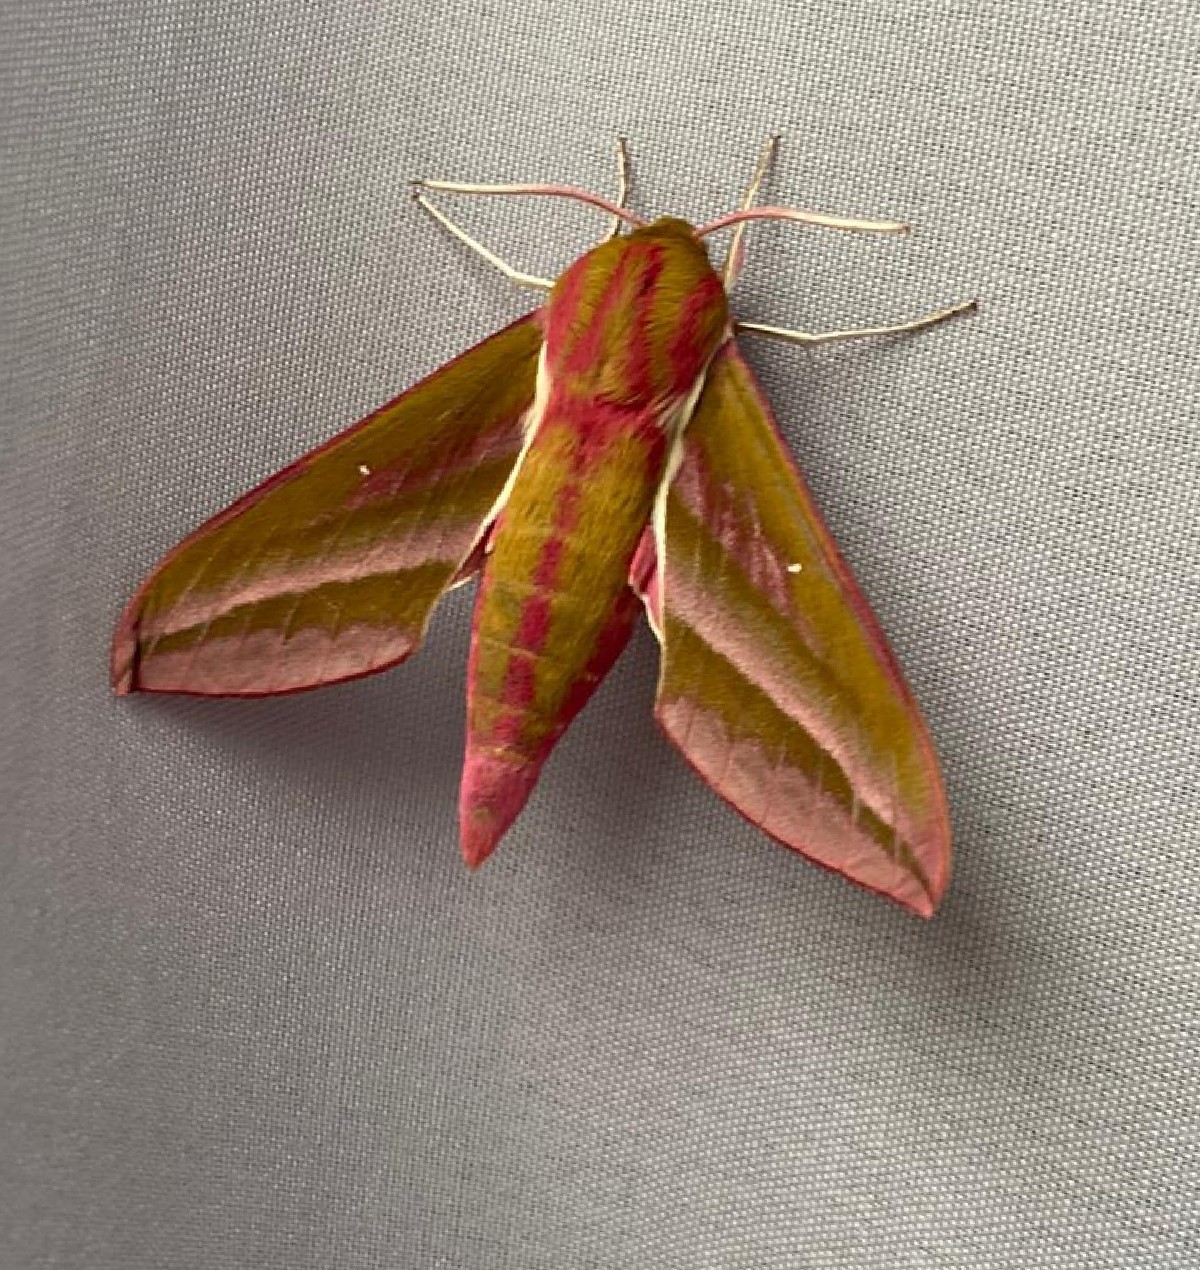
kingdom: Animalia
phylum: Arthropoda
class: Insecta
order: Lepidoptera
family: Sphingidae
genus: Deilephila
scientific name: Deilephila elpenor
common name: Elephant hawk-moth
